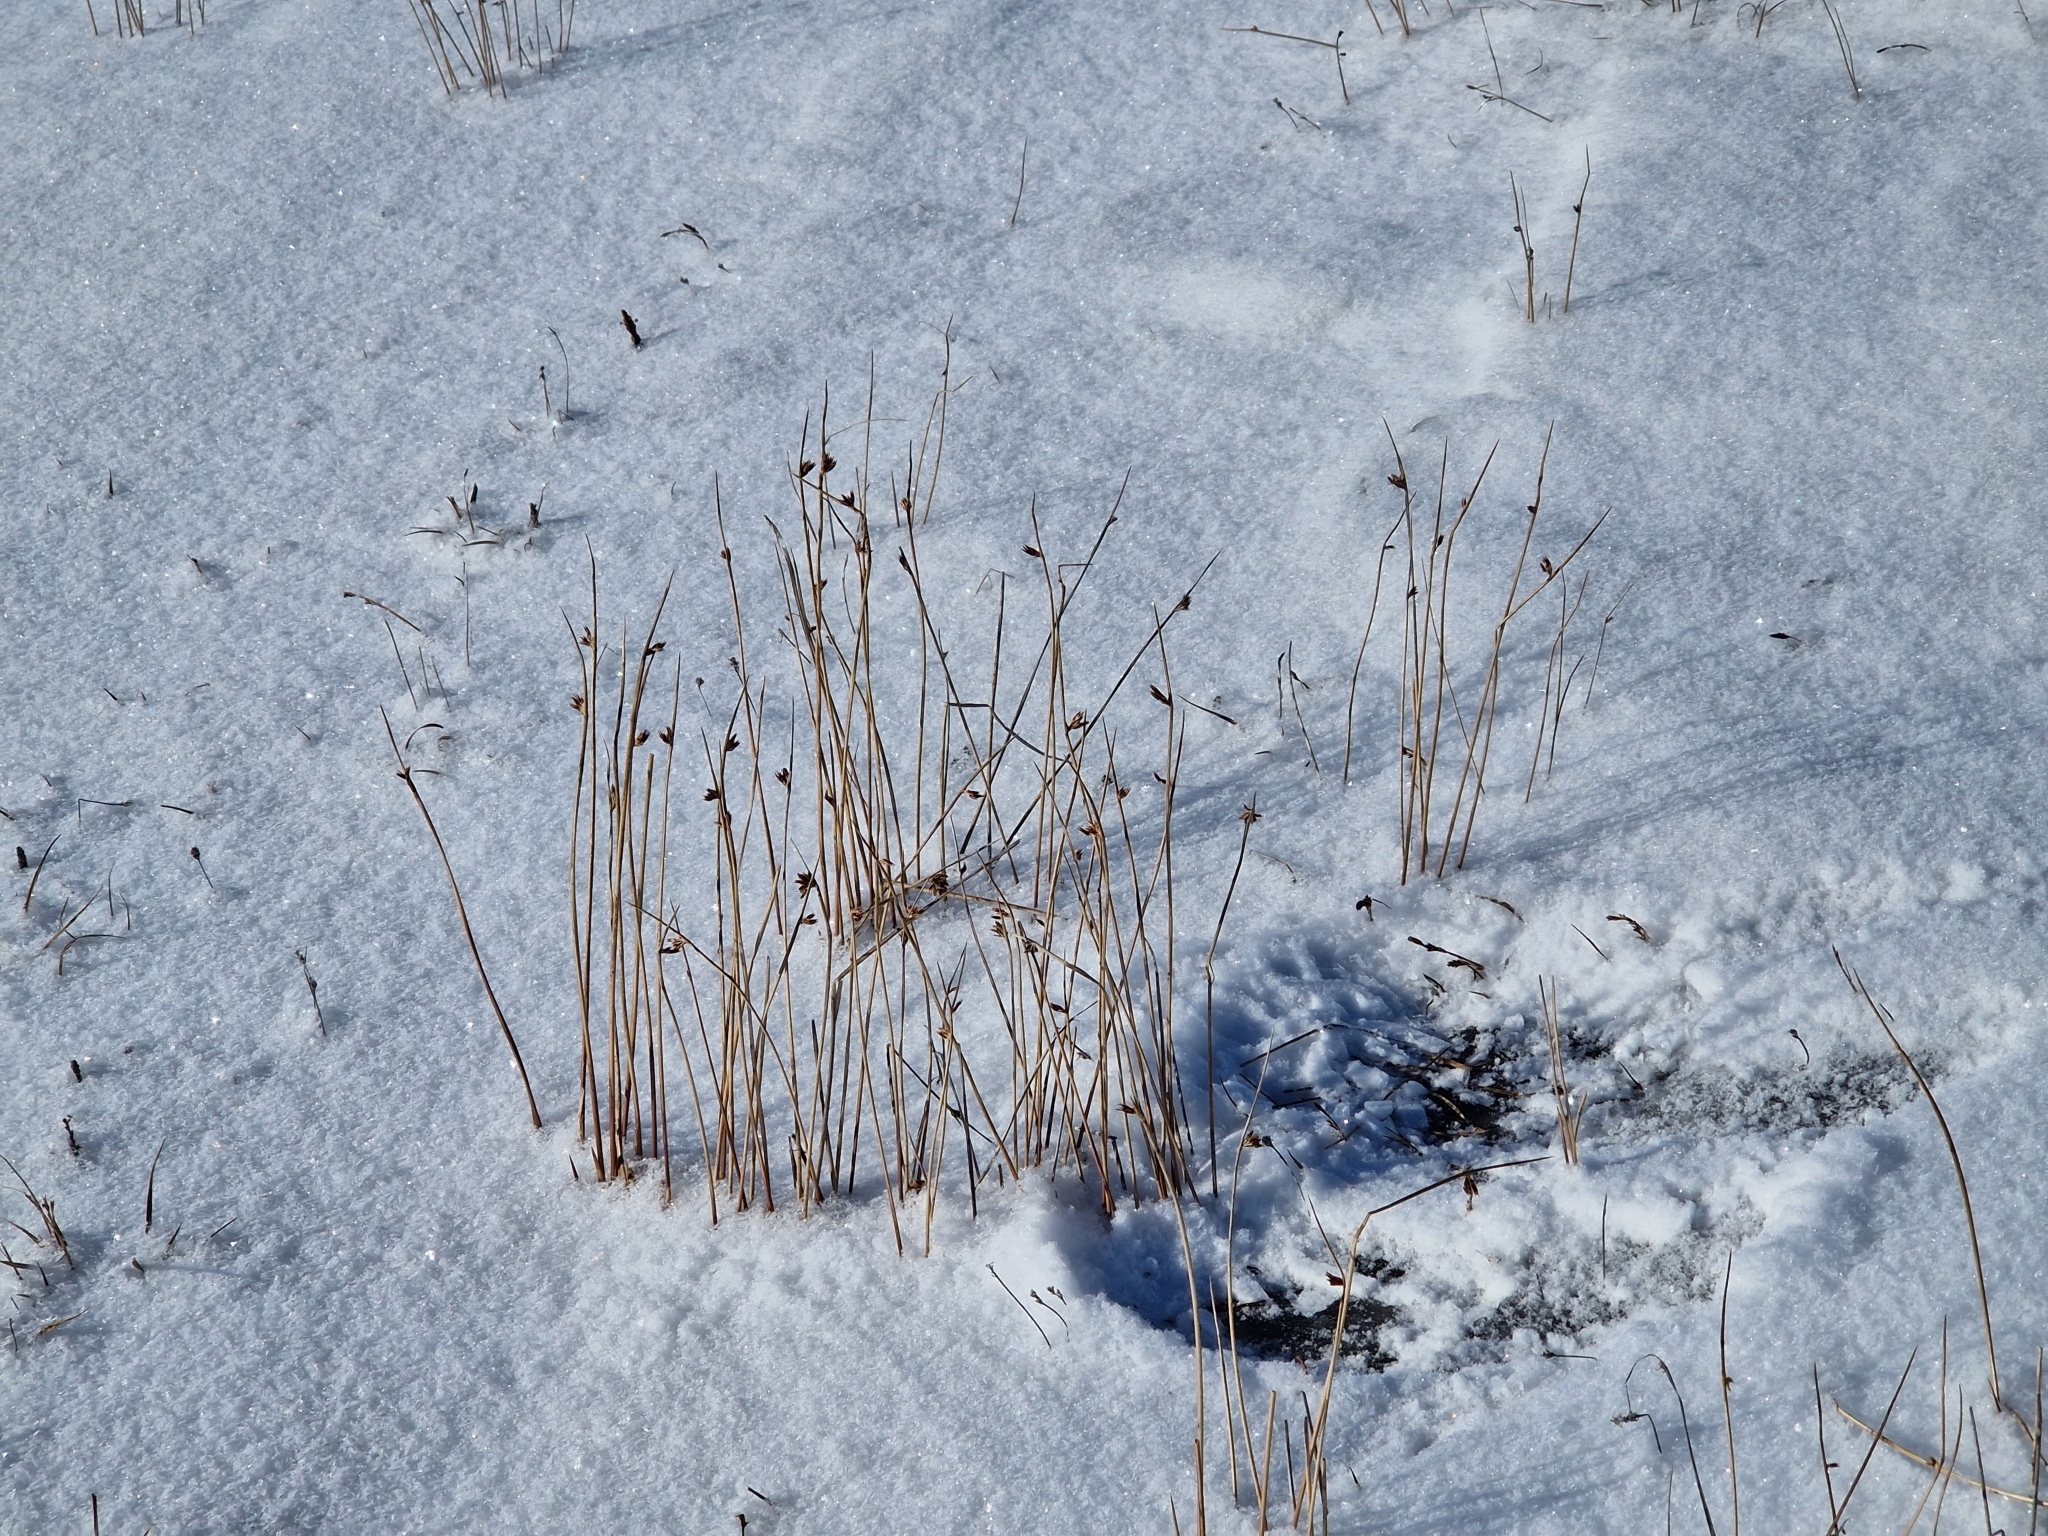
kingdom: Plantae
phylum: Tracheophyta
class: Liliopsida
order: Poales
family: Juncaceae
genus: Juncus
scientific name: Juncus arcticus
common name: Arctic rush
